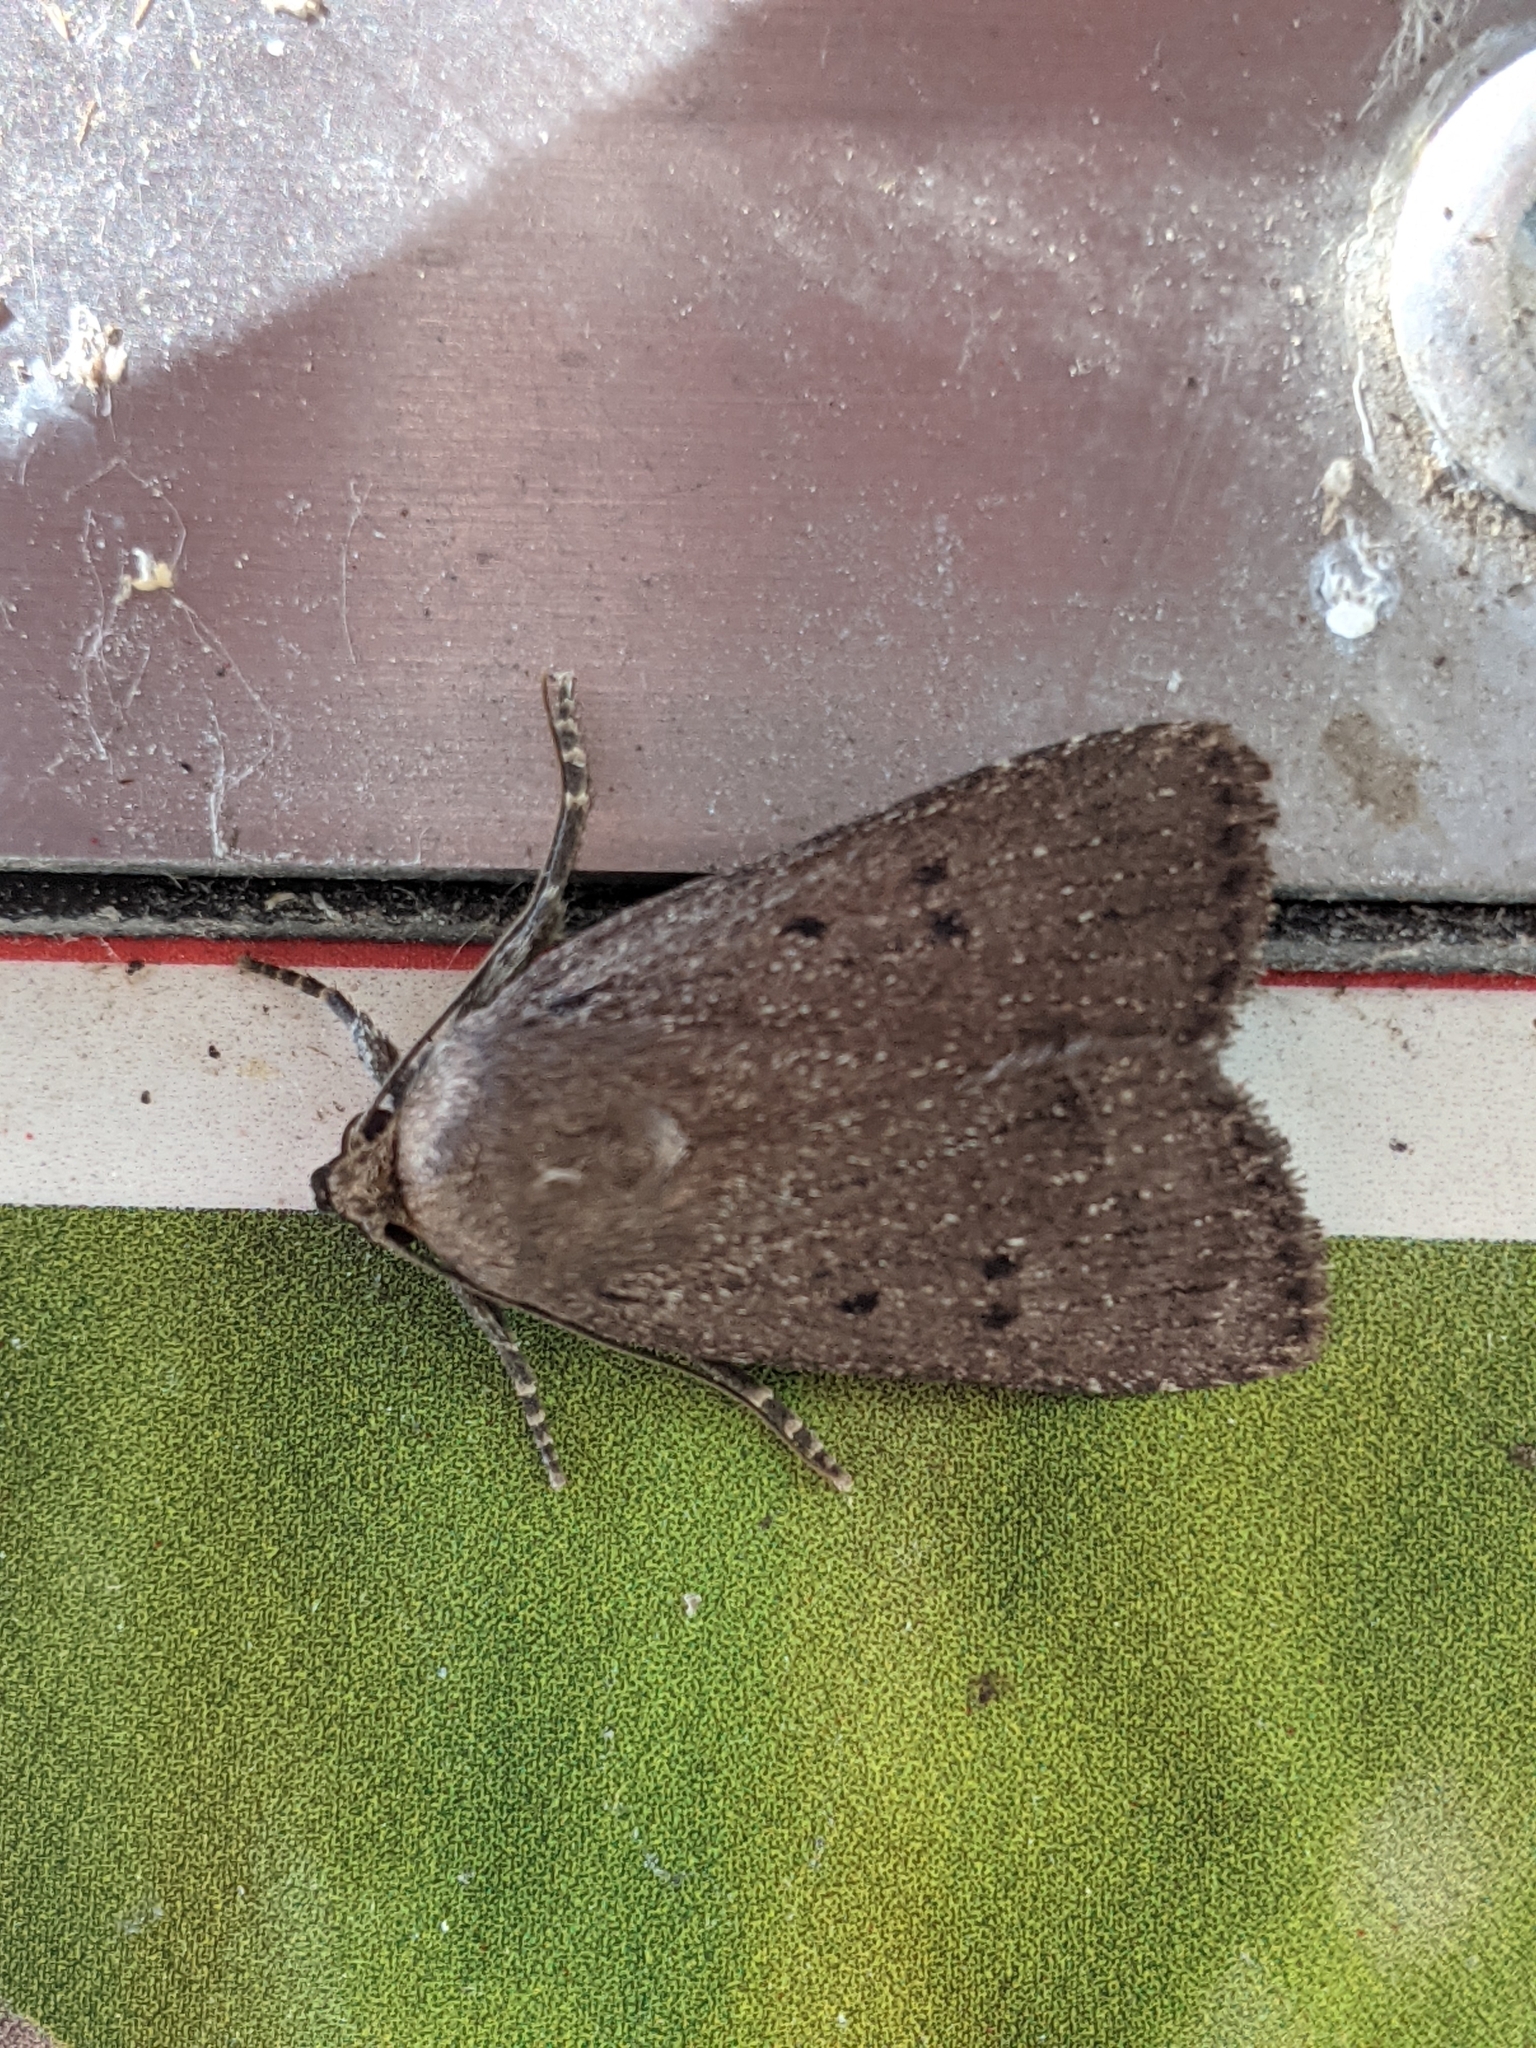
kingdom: Animalia
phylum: Arthropoda
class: Insecta
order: Lepidoptera
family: Noctuidae
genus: Amphipyra
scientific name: Amphipyra tragopoginis
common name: Mouse moth
